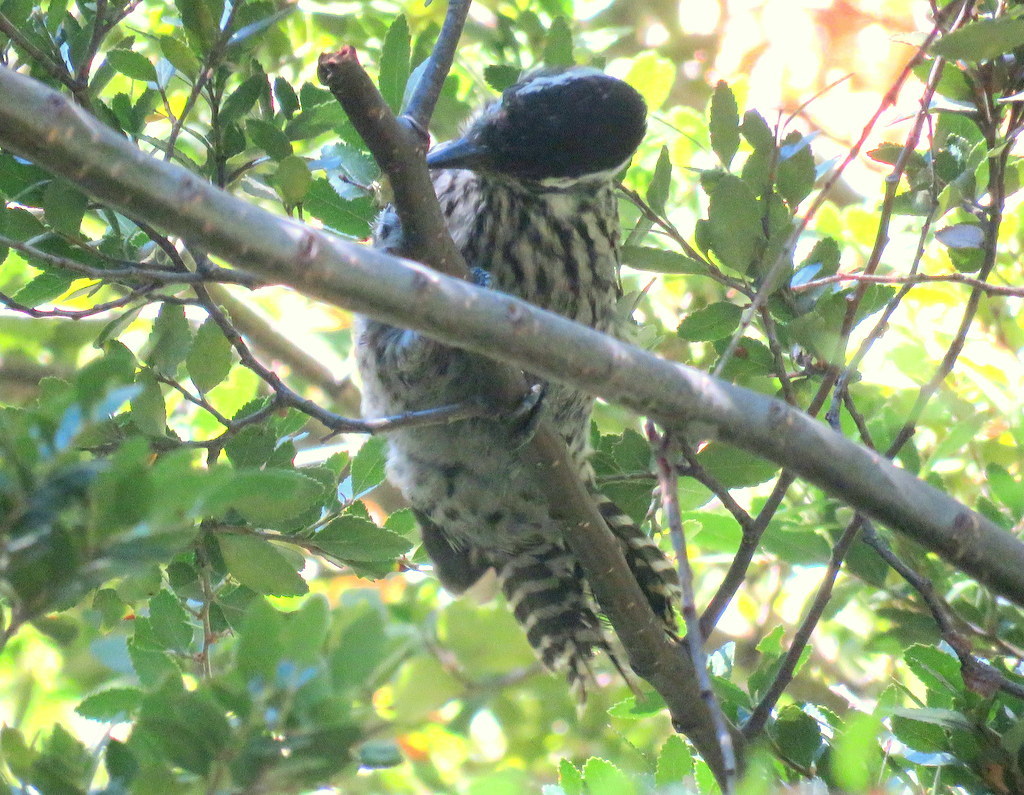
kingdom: Animalia
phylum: Chordata
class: Aves
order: Piciformes
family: Picidae
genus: Veniliornis
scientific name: Veniliornis lignarius
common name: Striped woodpecker
